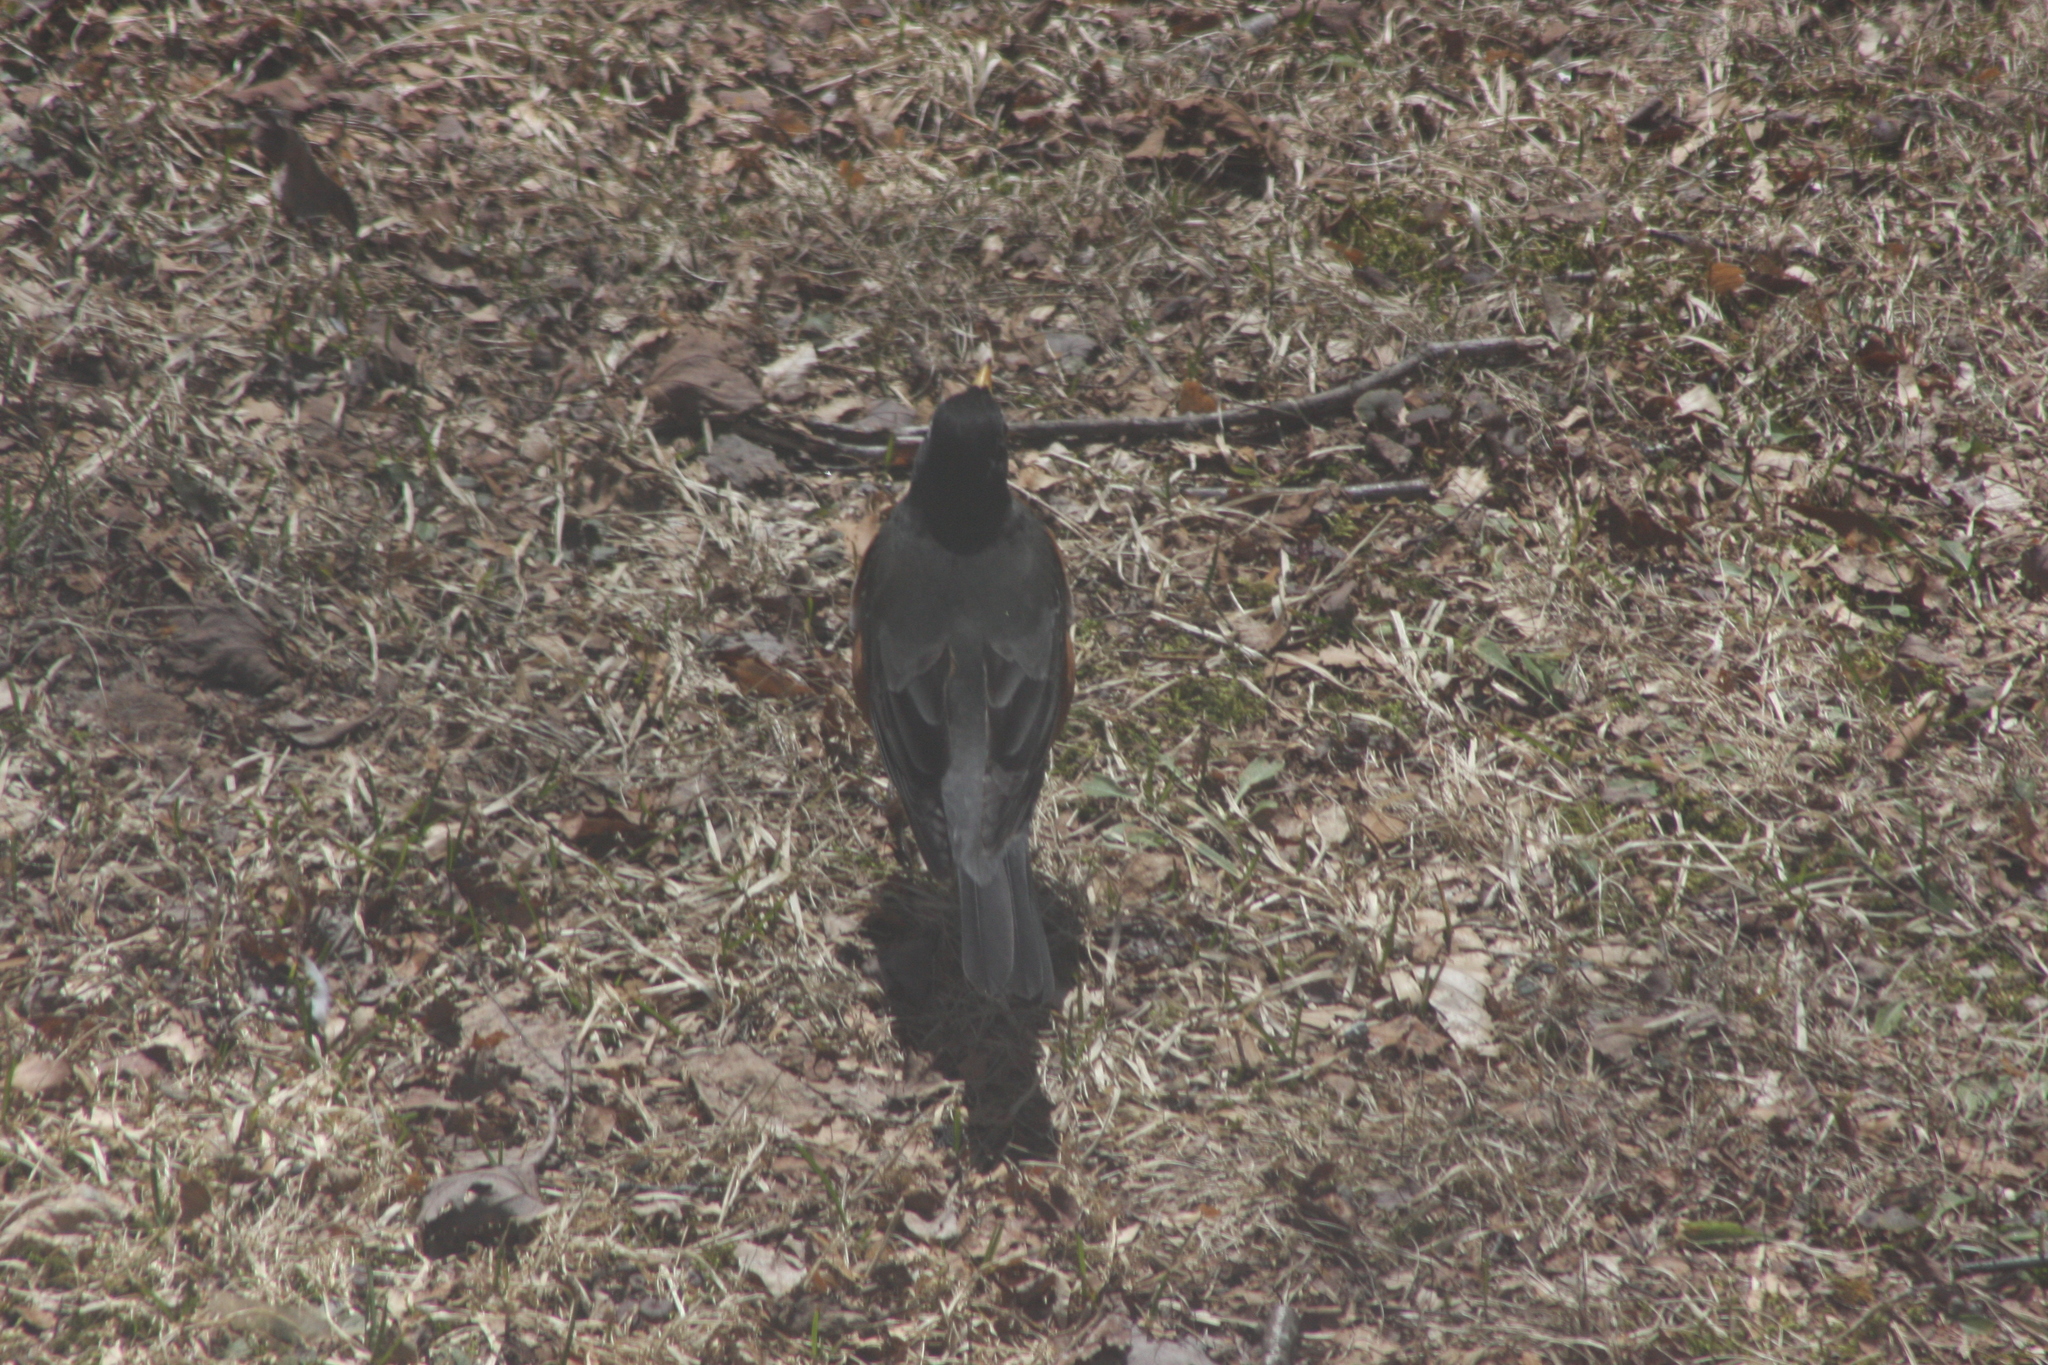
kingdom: Animalia
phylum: Chordata
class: Aves
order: Passeriformes
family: Turdidae
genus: Turdus
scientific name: Turdus migratorius
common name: American robin
